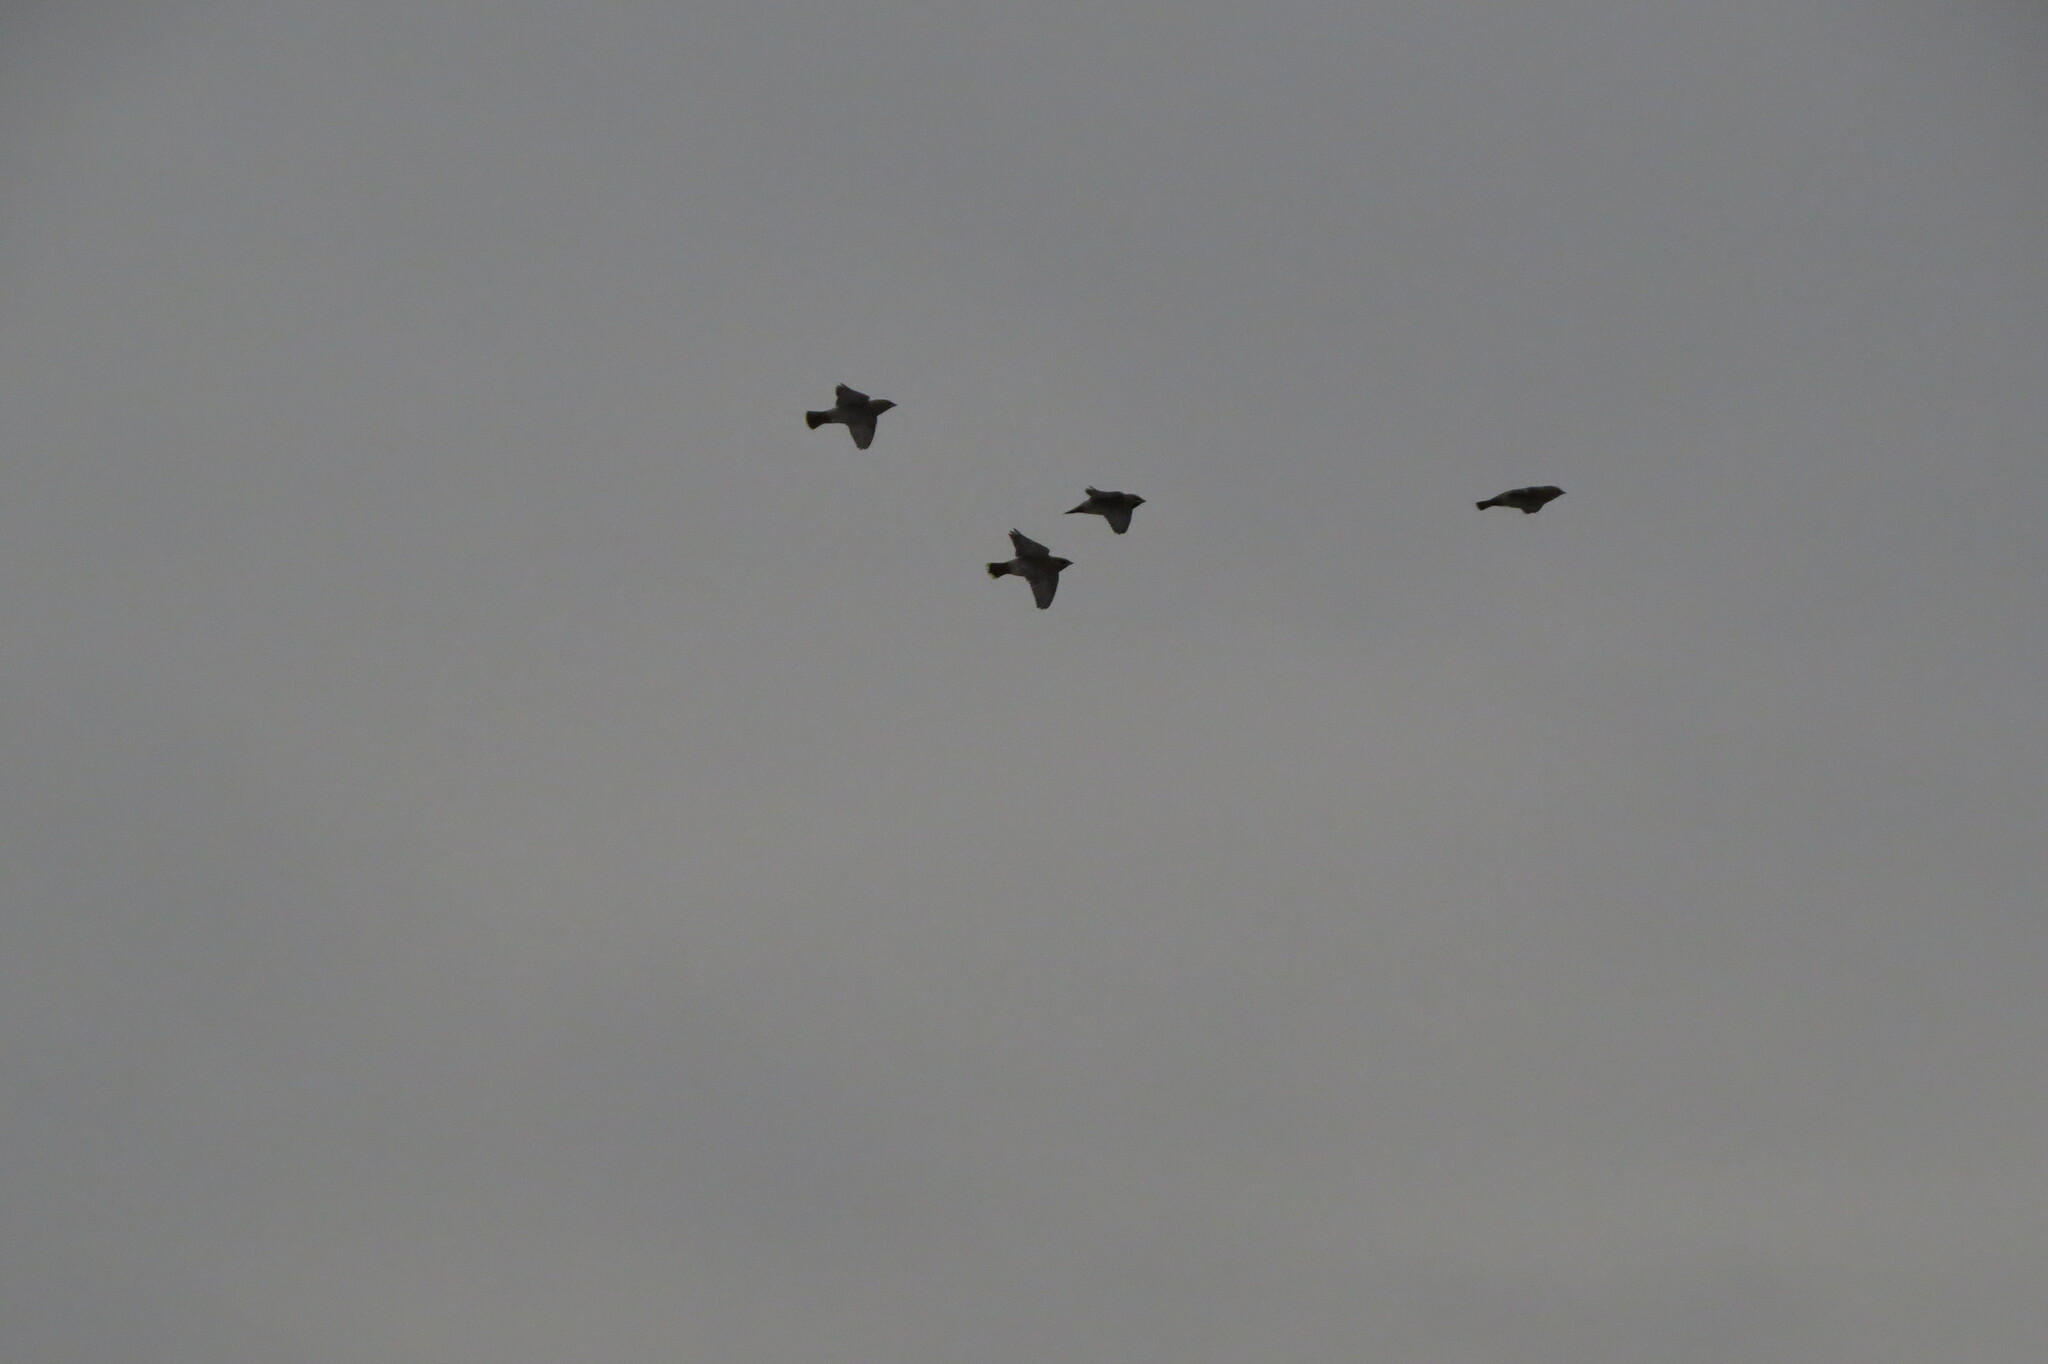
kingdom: Animalia
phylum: Chordata
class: Aves
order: Passeriformes
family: Bombycillidae
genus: Bombycilla
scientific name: Bombycilla garrulus
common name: Bohemian waxwing
